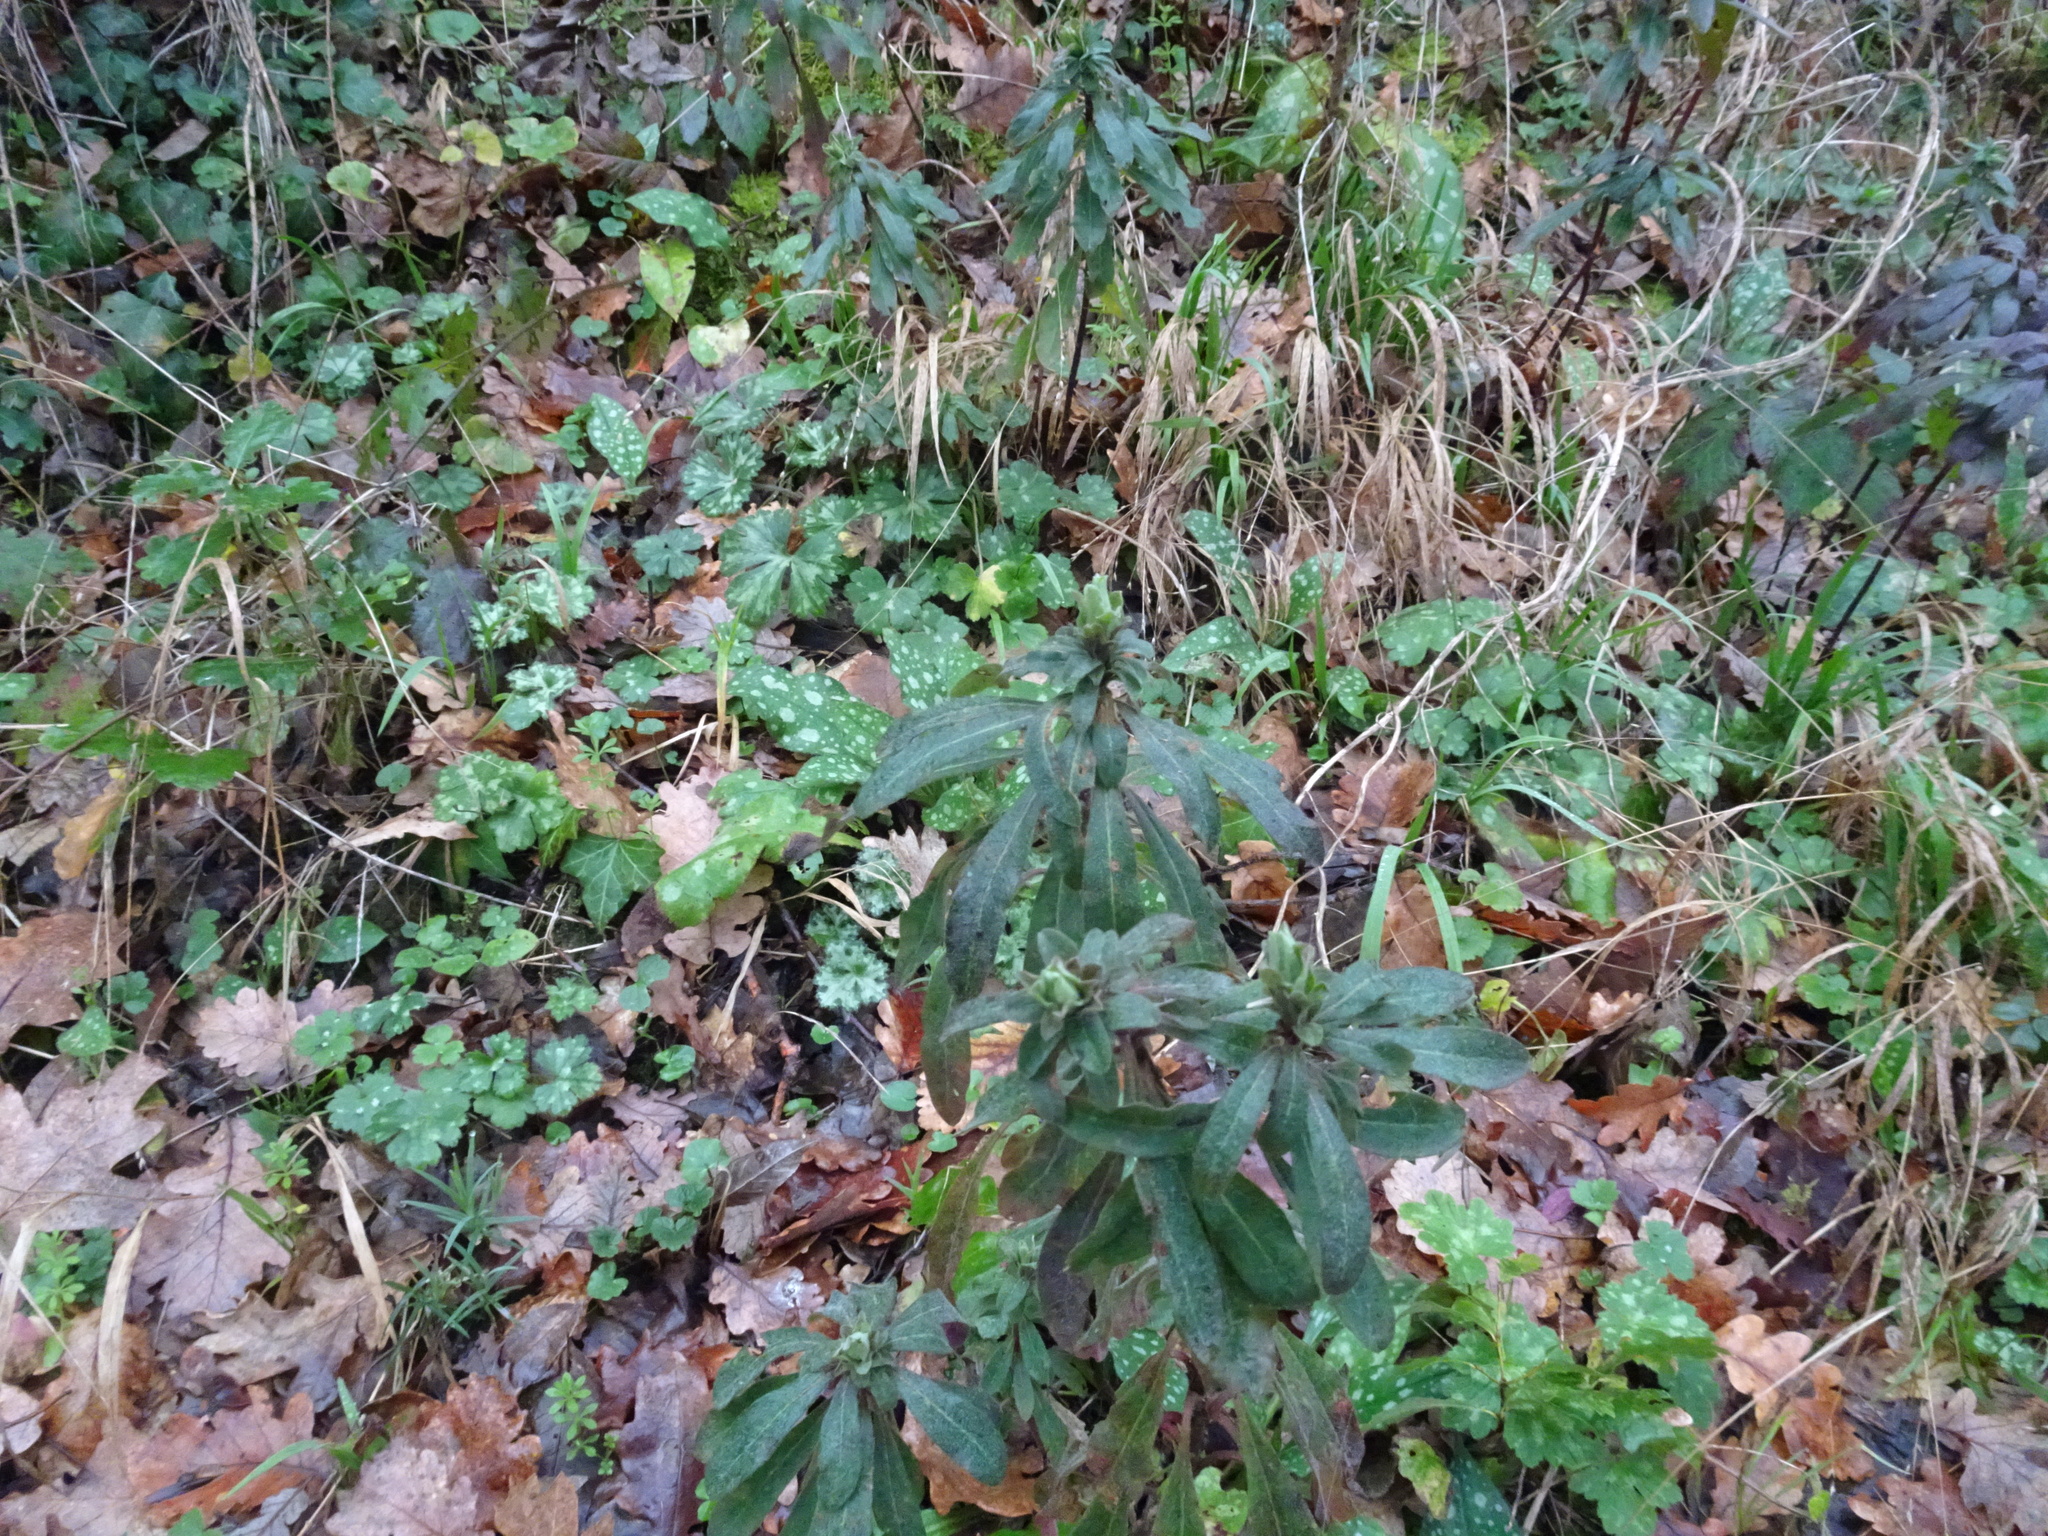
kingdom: Plantae
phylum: Tracheophyta
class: Magnoliopsida
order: Malpighiales
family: Euphorbiaceae
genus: Euphorbia
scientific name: Euphorbia amygdaloides
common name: Wood spurge
